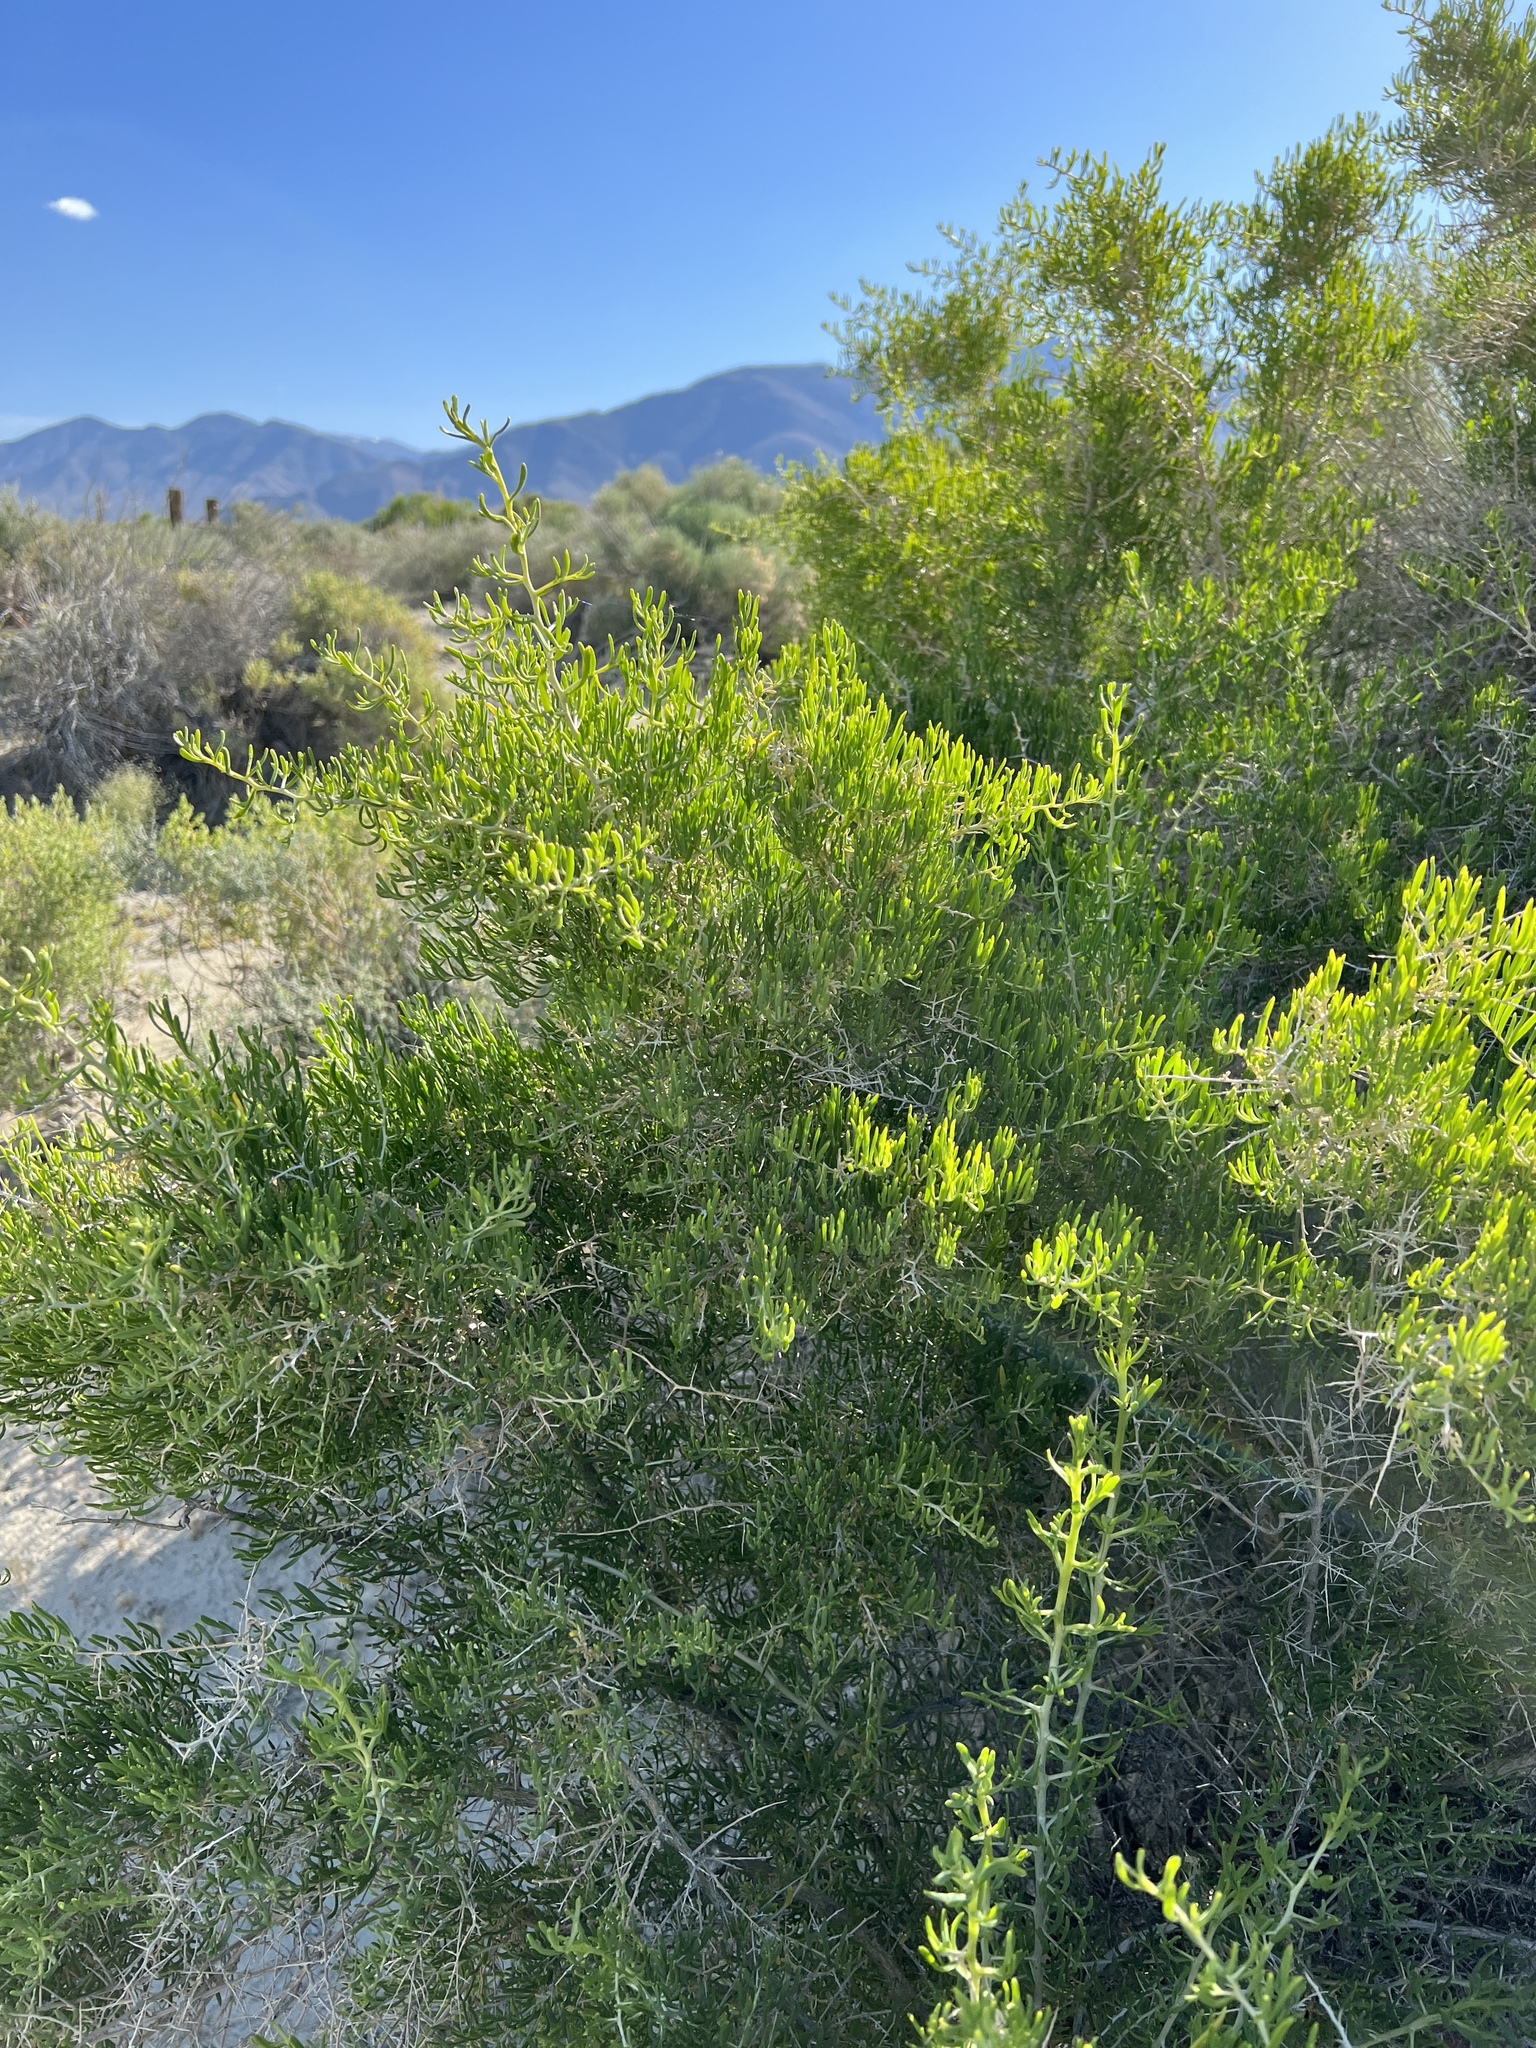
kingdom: Plantae
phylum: Tracheophyta
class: Magnoliopsida
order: Caryophyllales
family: Sarcobataceae
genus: Sarcobatus
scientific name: Sarcobatus vermiculatus
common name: Greasewood
